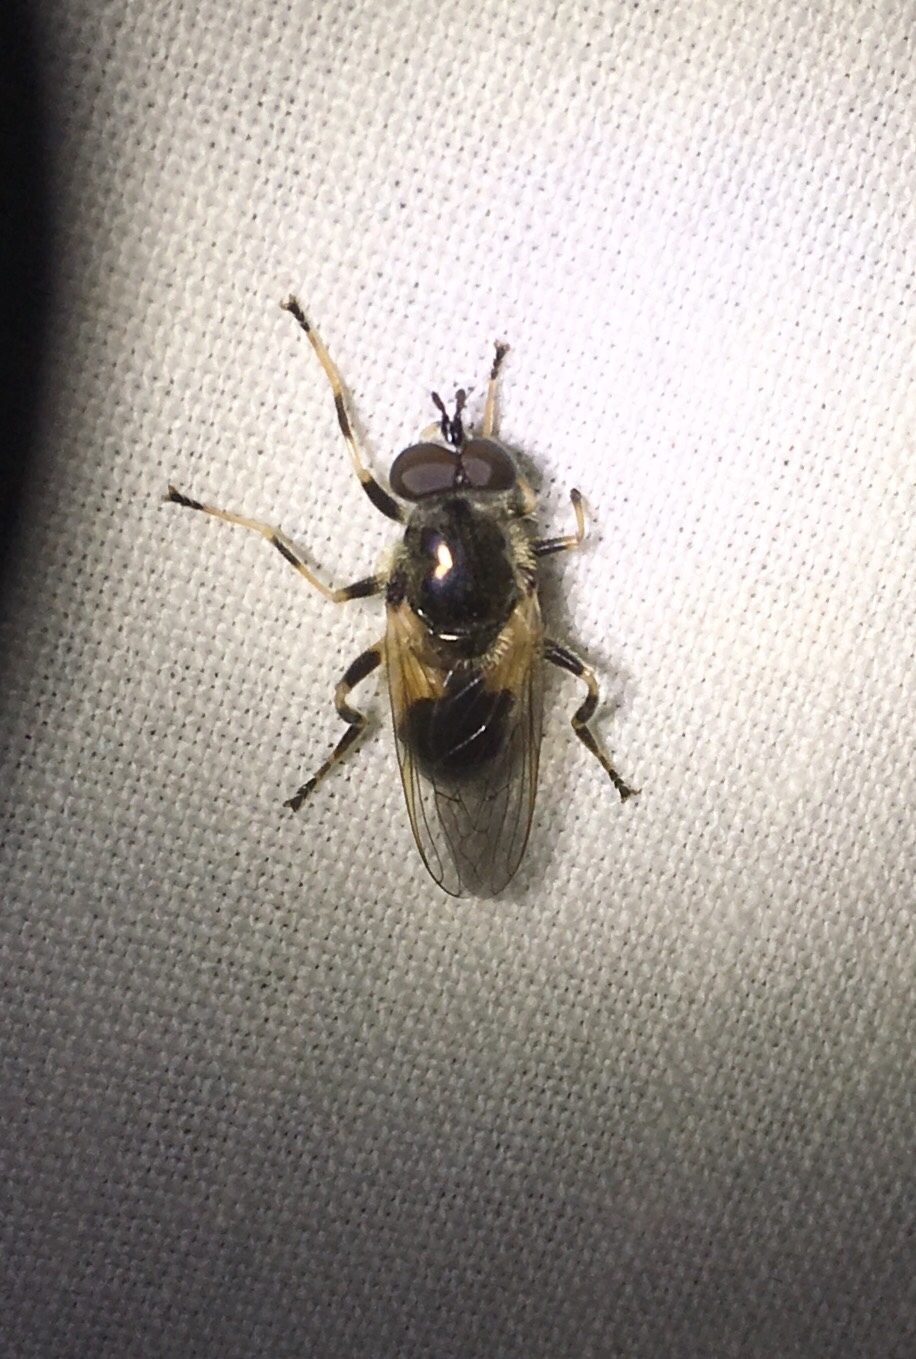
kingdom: Animalia
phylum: Arthropoda
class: Insecta
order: Diptera
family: Syrphidae
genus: Blera
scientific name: Blera badia
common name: Common wood fly
